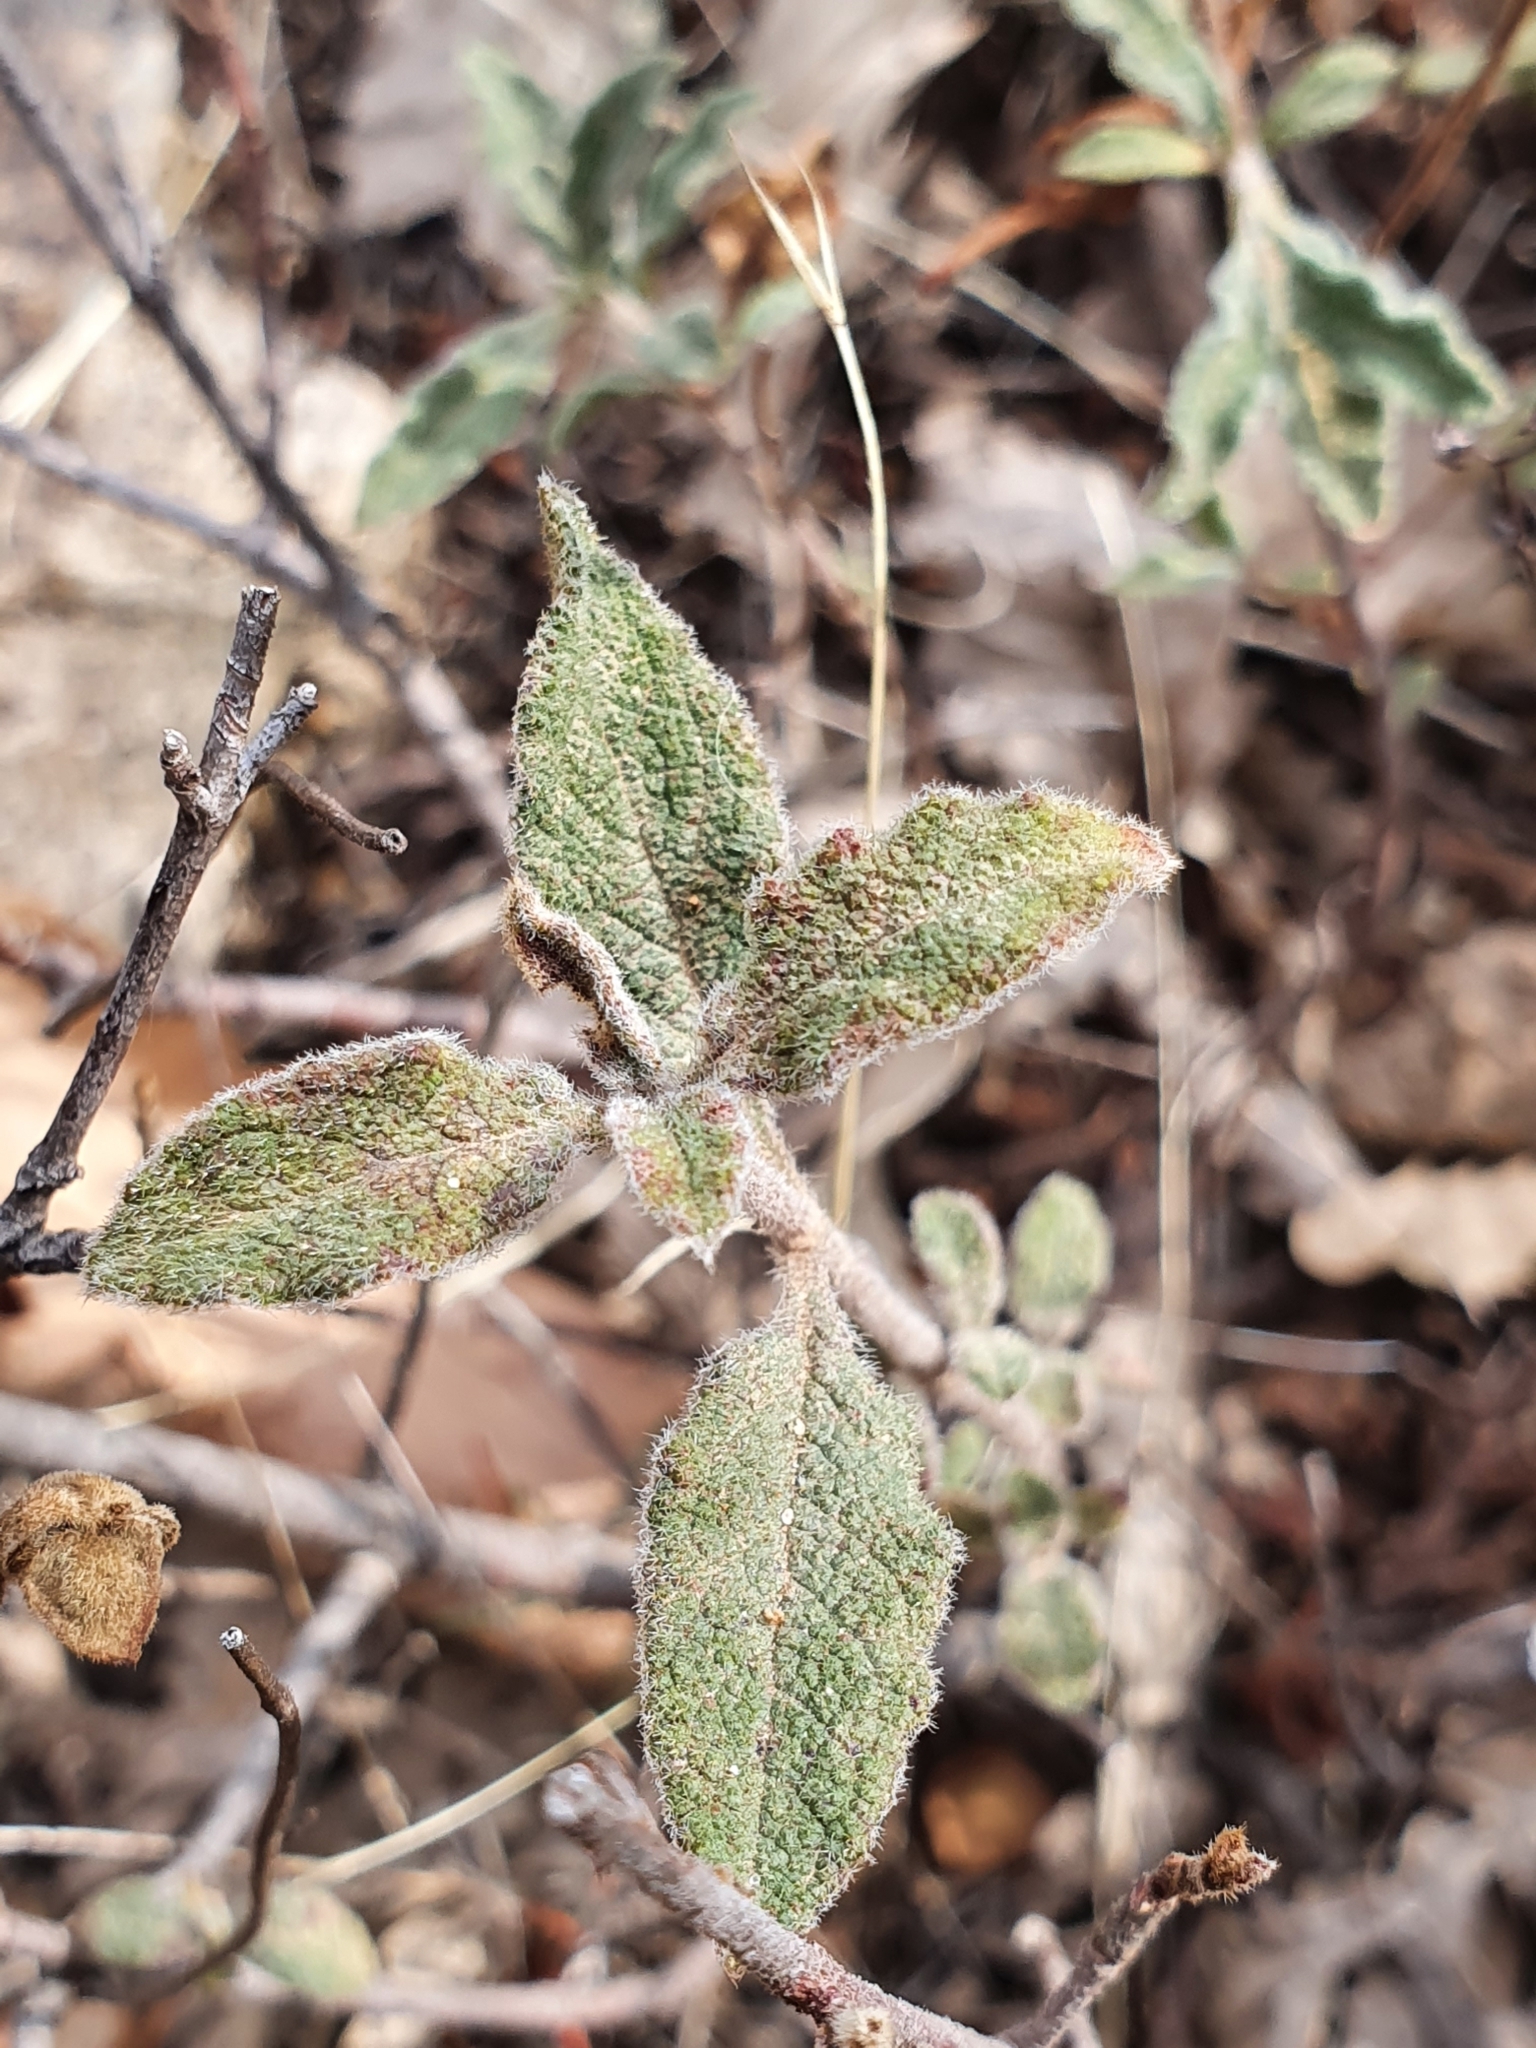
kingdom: Plantae
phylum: Tracheophyta
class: Magnoliopsida
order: Malvales
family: Cistaceae
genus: Cistus
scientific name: Cistus salviifolius
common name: Salvia cistus
